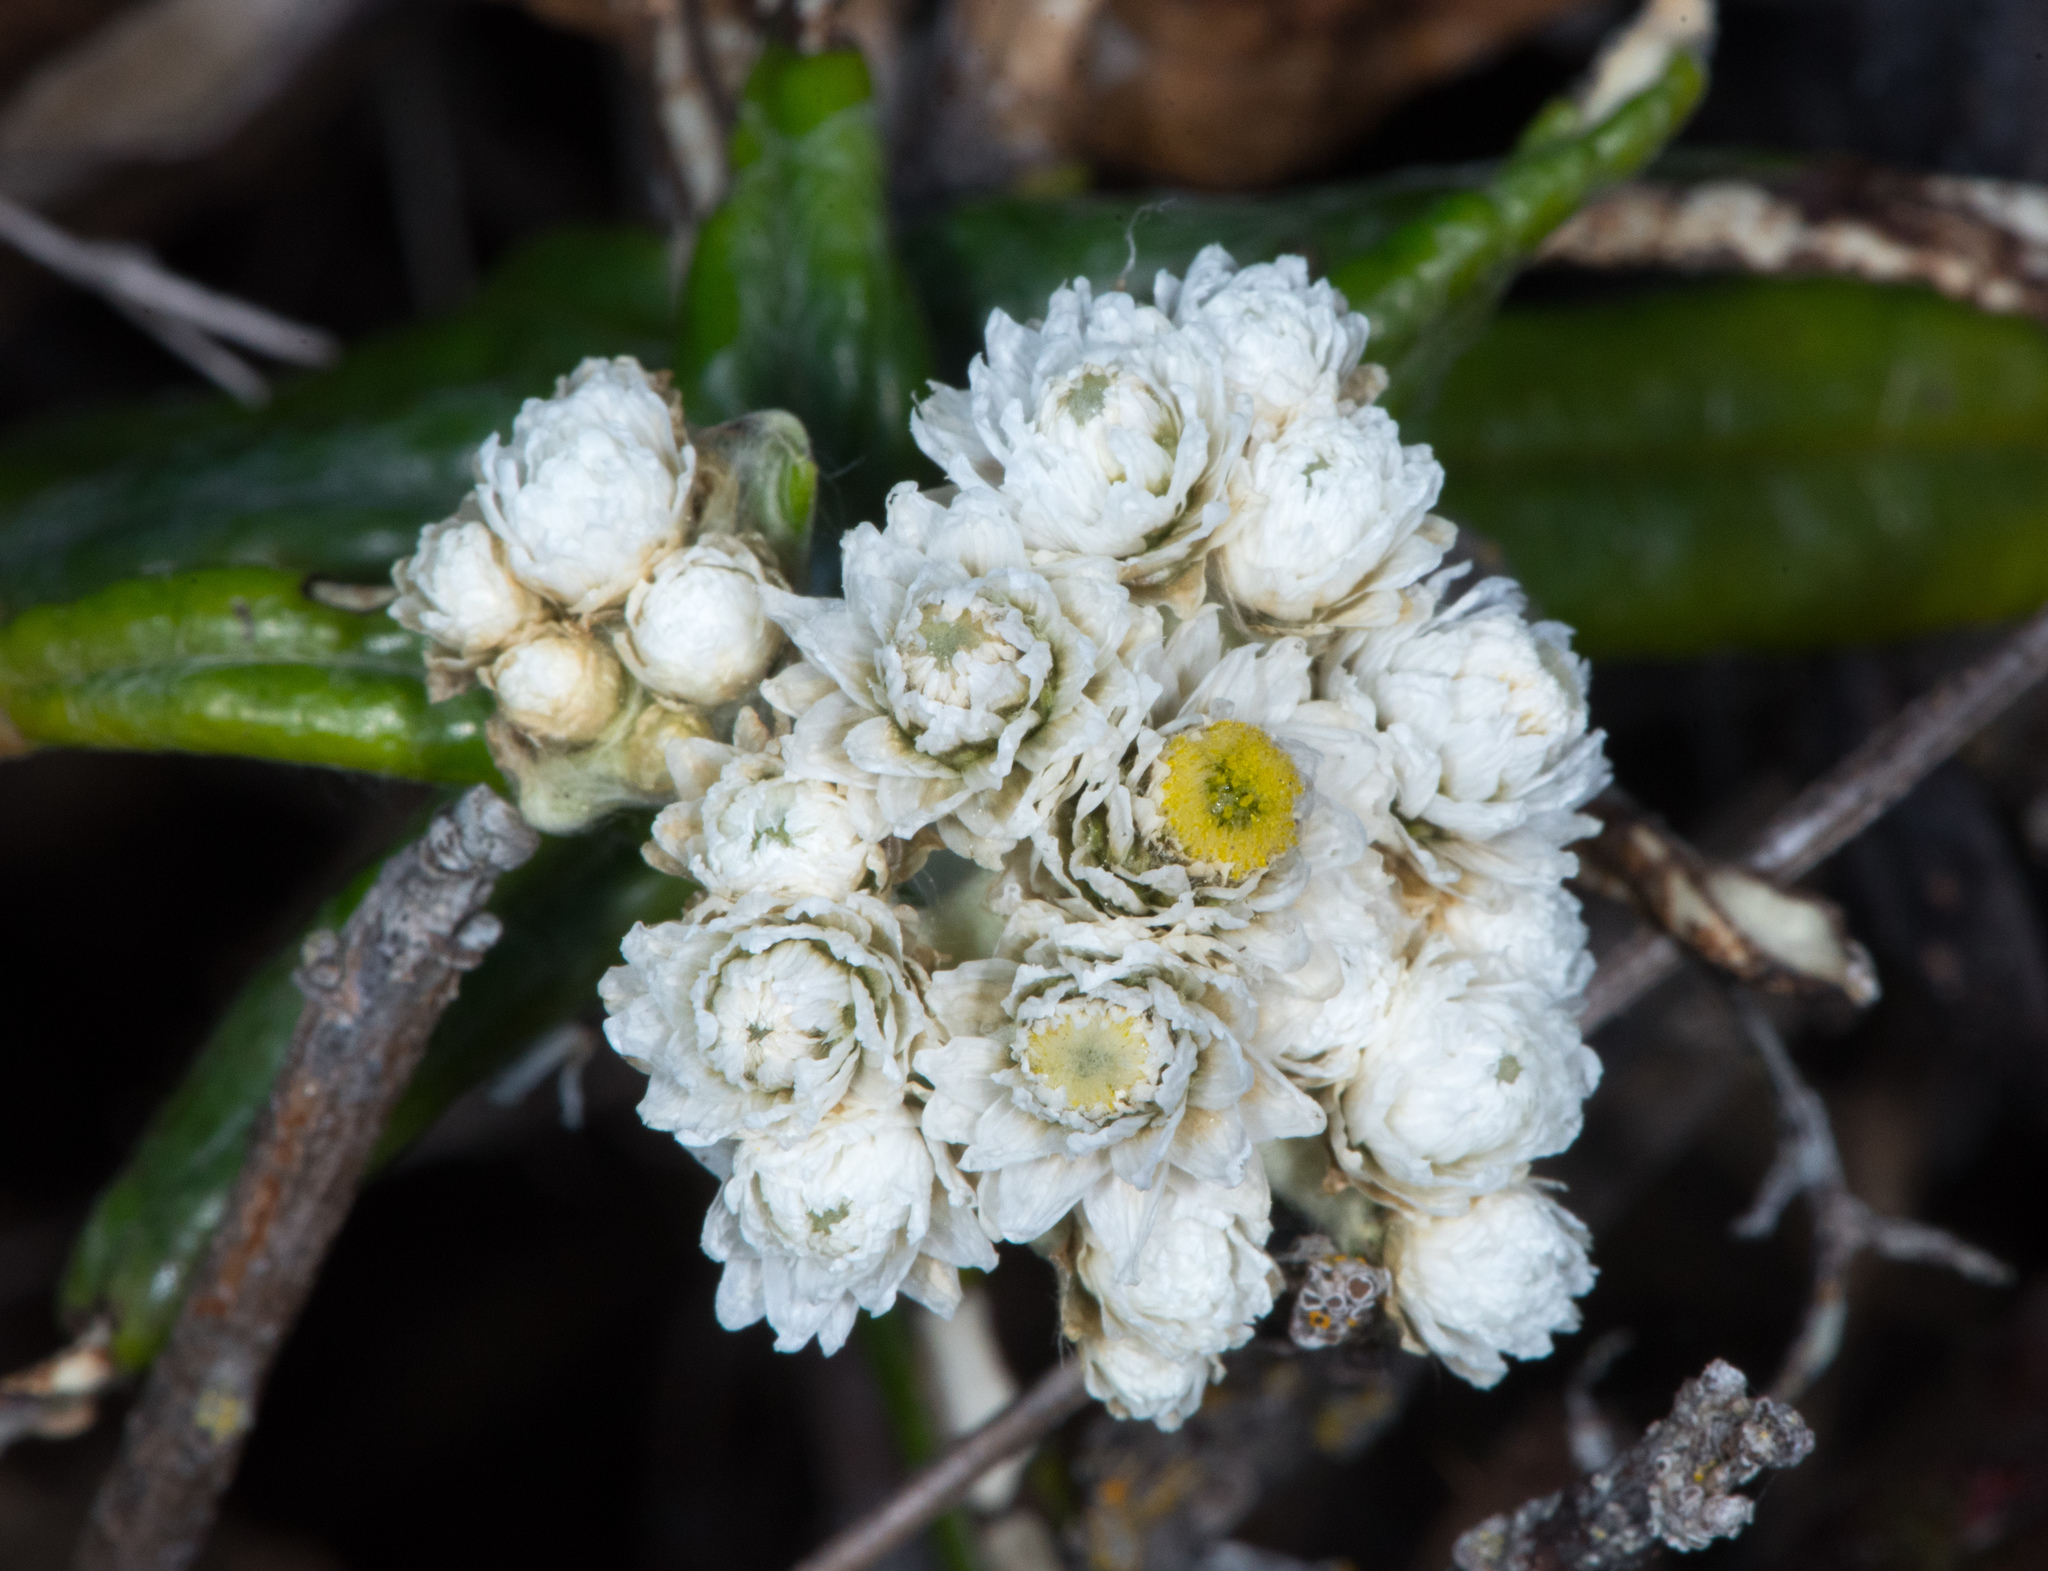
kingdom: Plantae
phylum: Tracheophyta
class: Magnoliopsida
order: Asterales
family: Asteraceae
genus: Anaphalis
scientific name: Anaphalis margaritacea
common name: Pearly everlasting
